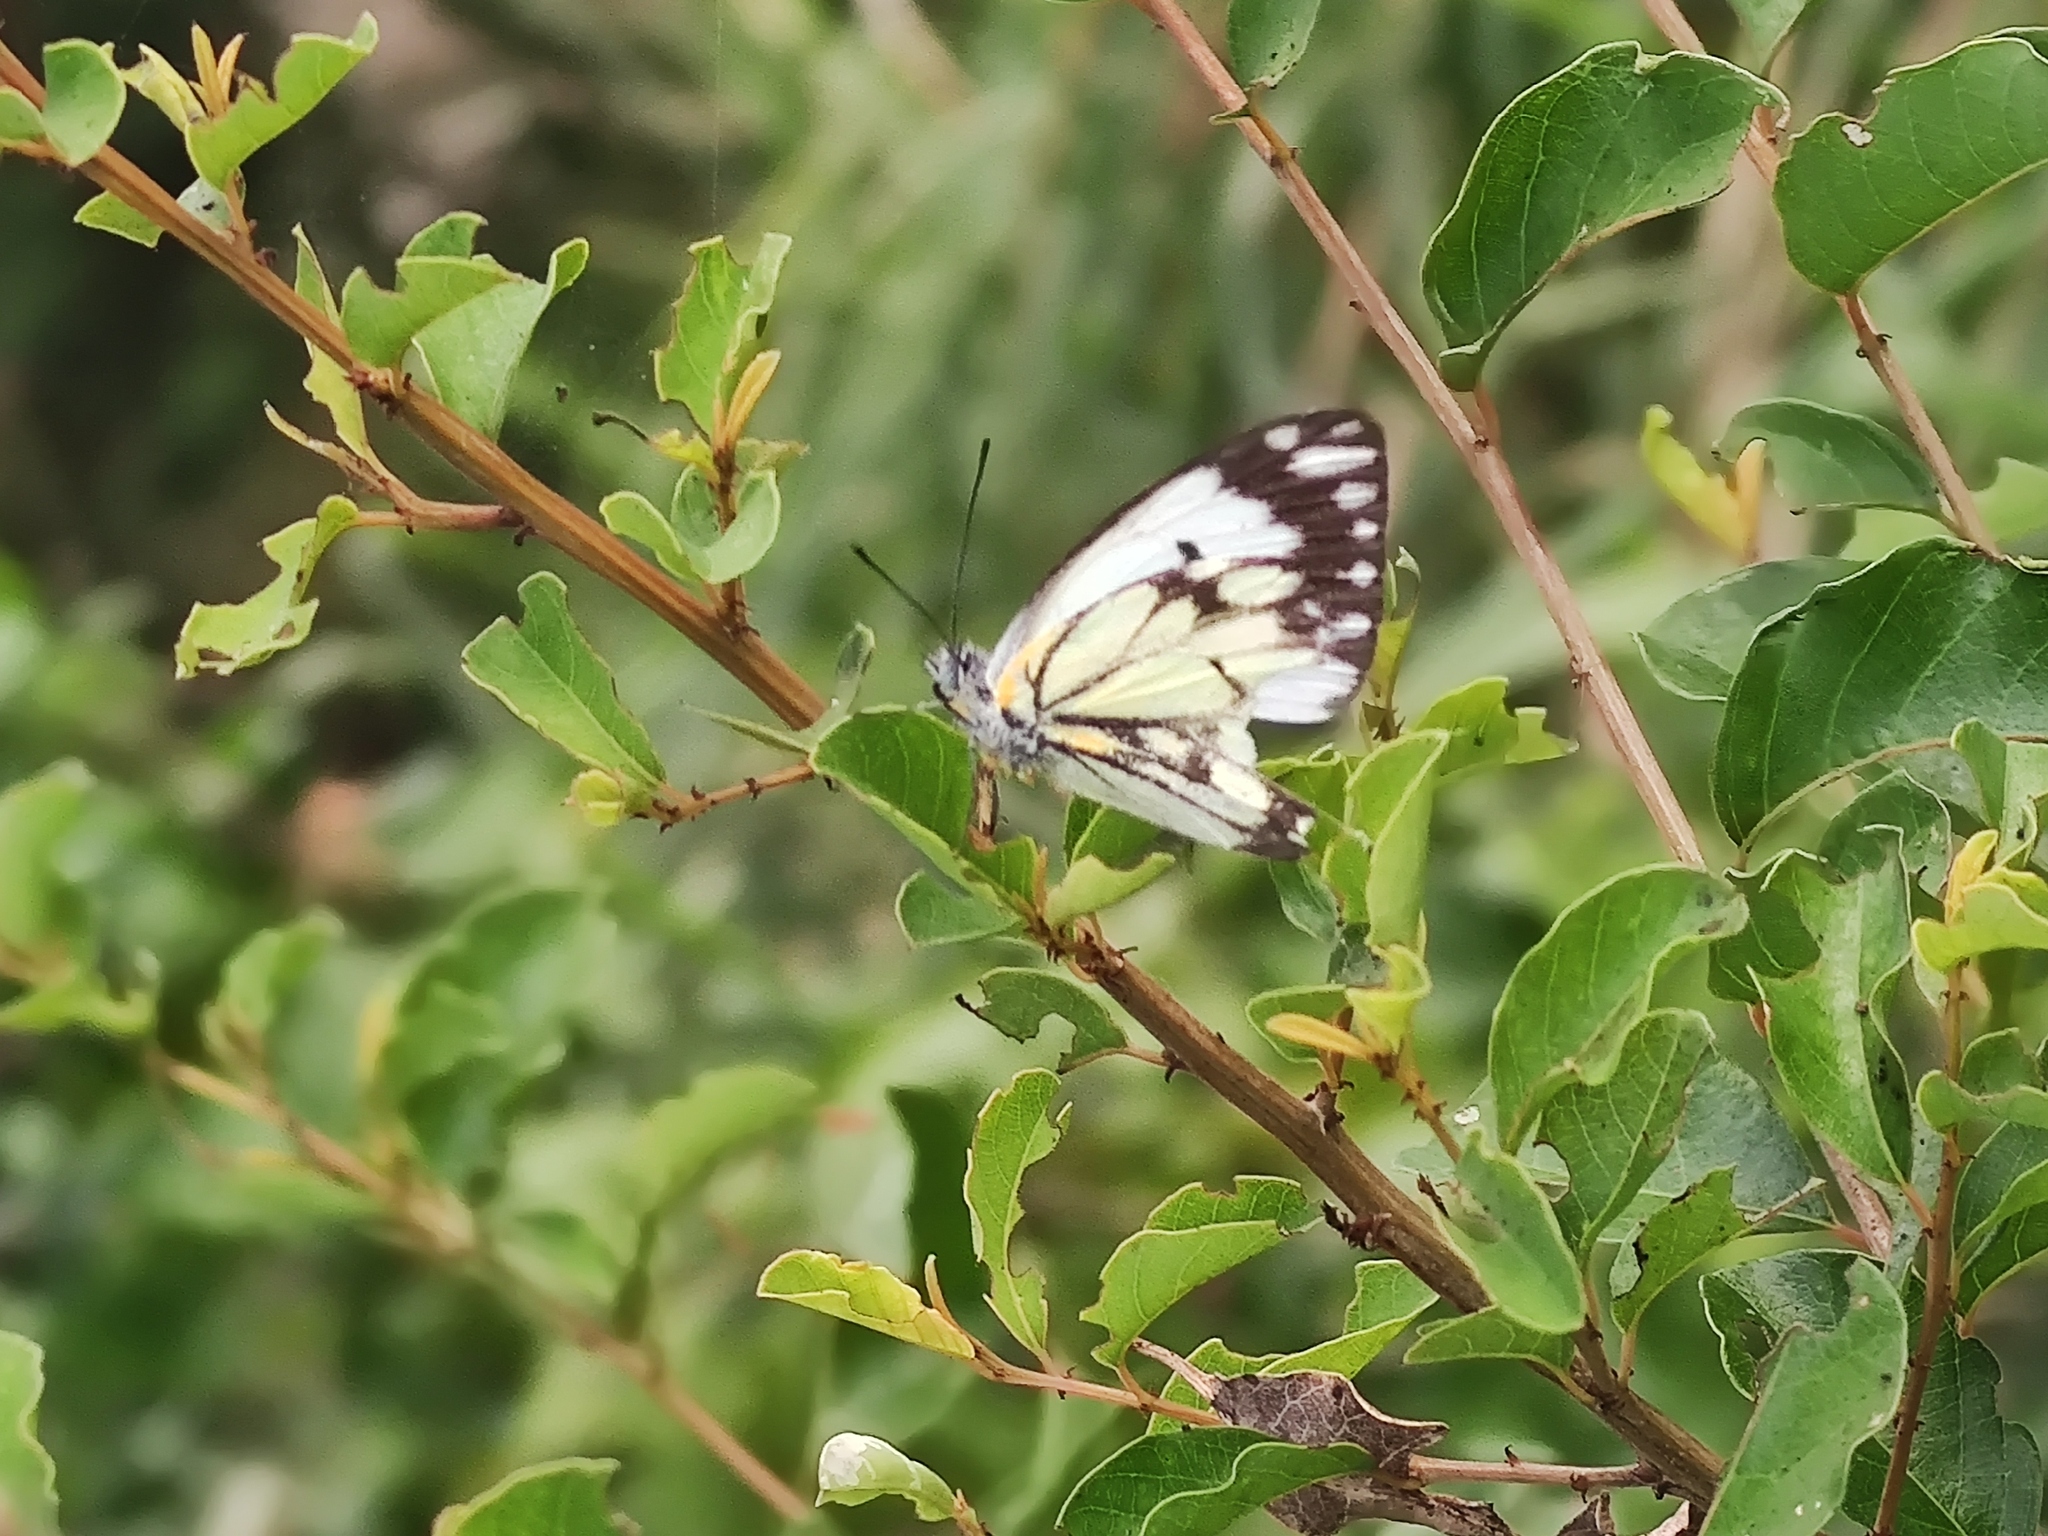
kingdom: Animalia
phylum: Arthropoda
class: Insecta
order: Lepidoptera
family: Pieridae
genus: Belenois
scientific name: Belenois creona
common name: African caper white
